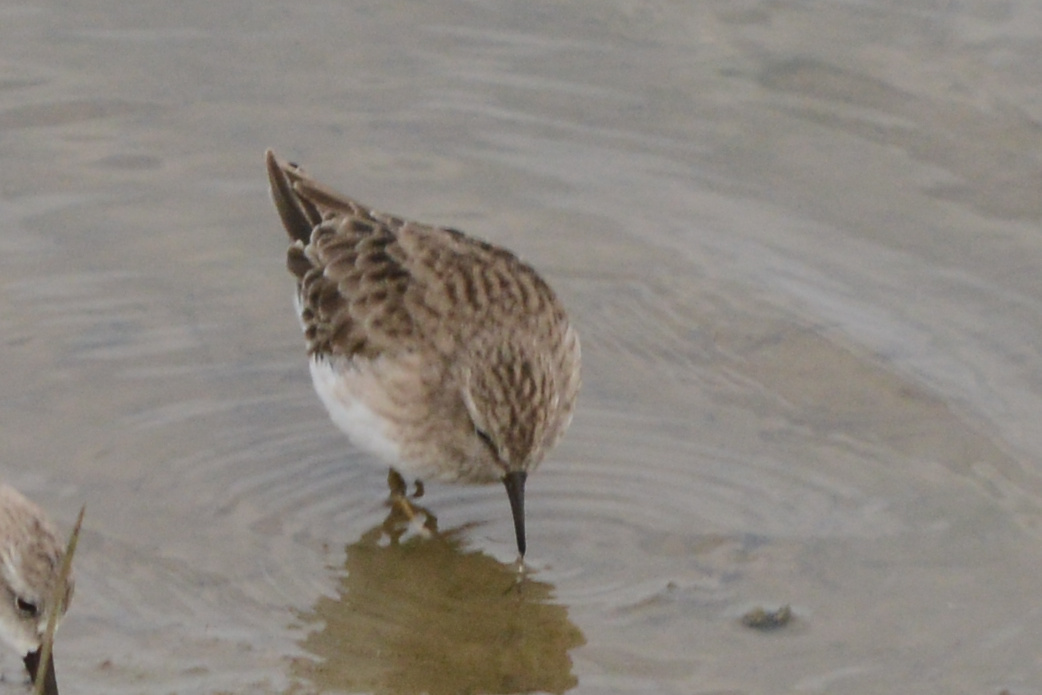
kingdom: Animalia
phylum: Chordata
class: Aves
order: Charadriiformes
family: Scolopacidae
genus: Calidris
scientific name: Calidris minutilla
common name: Least sandpiper
